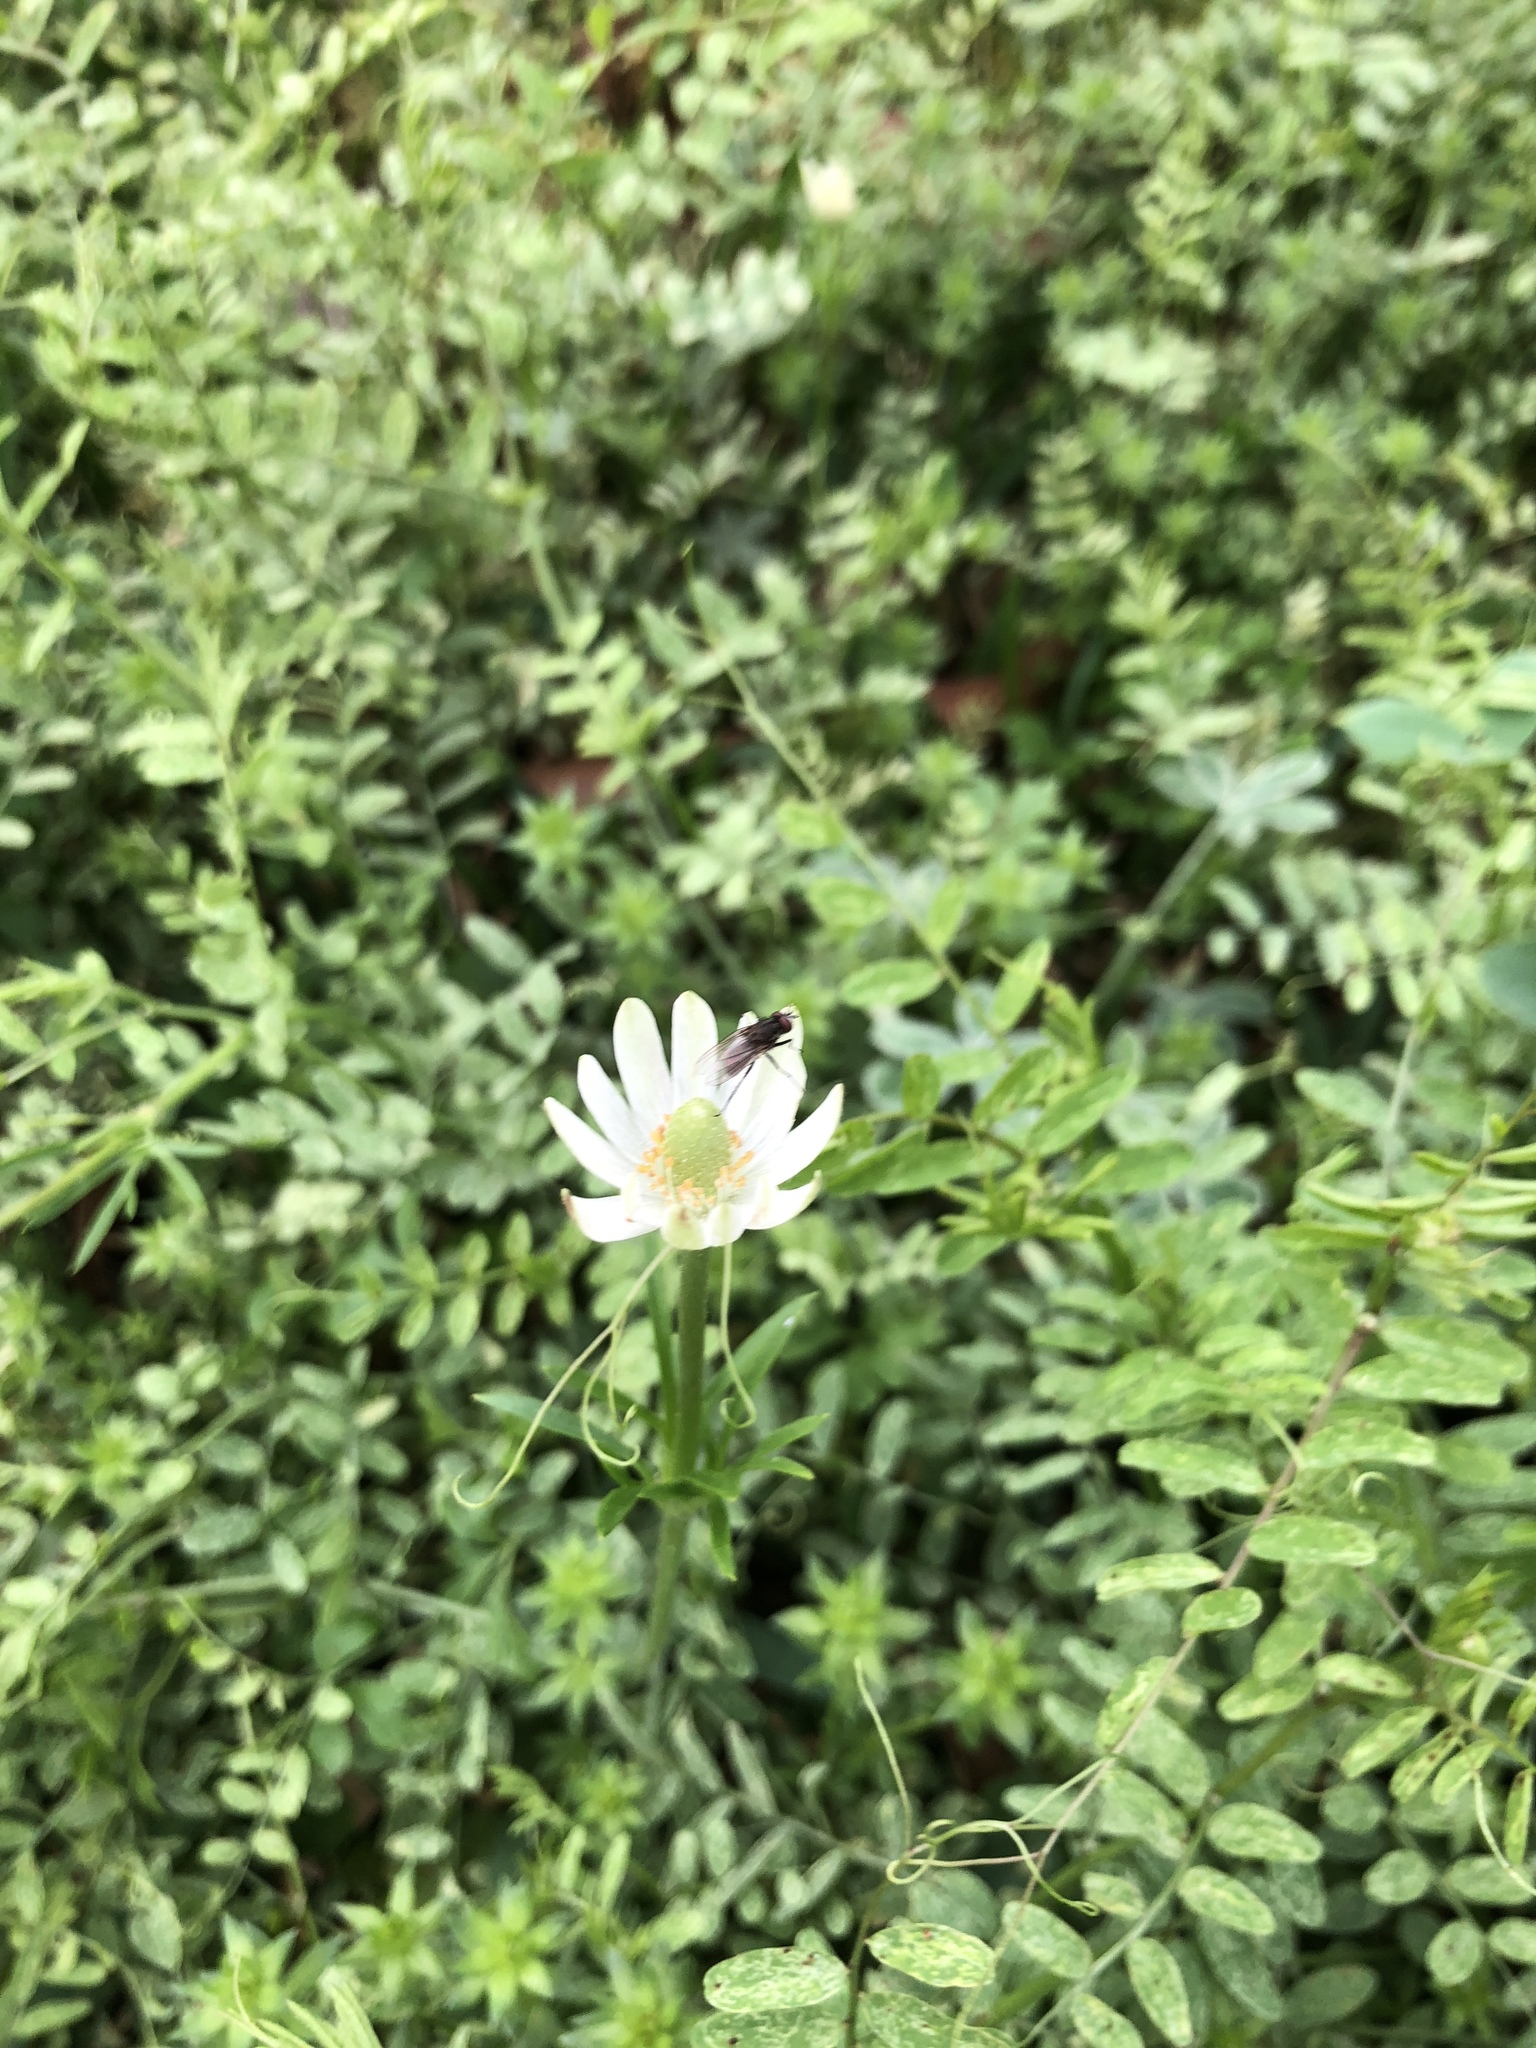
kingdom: Plantae
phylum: Tracheophyta
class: Magnoliopsida
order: Ranunculales
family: Ranunculaceae
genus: Anemone
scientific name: Anemone berlandieri
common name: Ten-petal anemone
